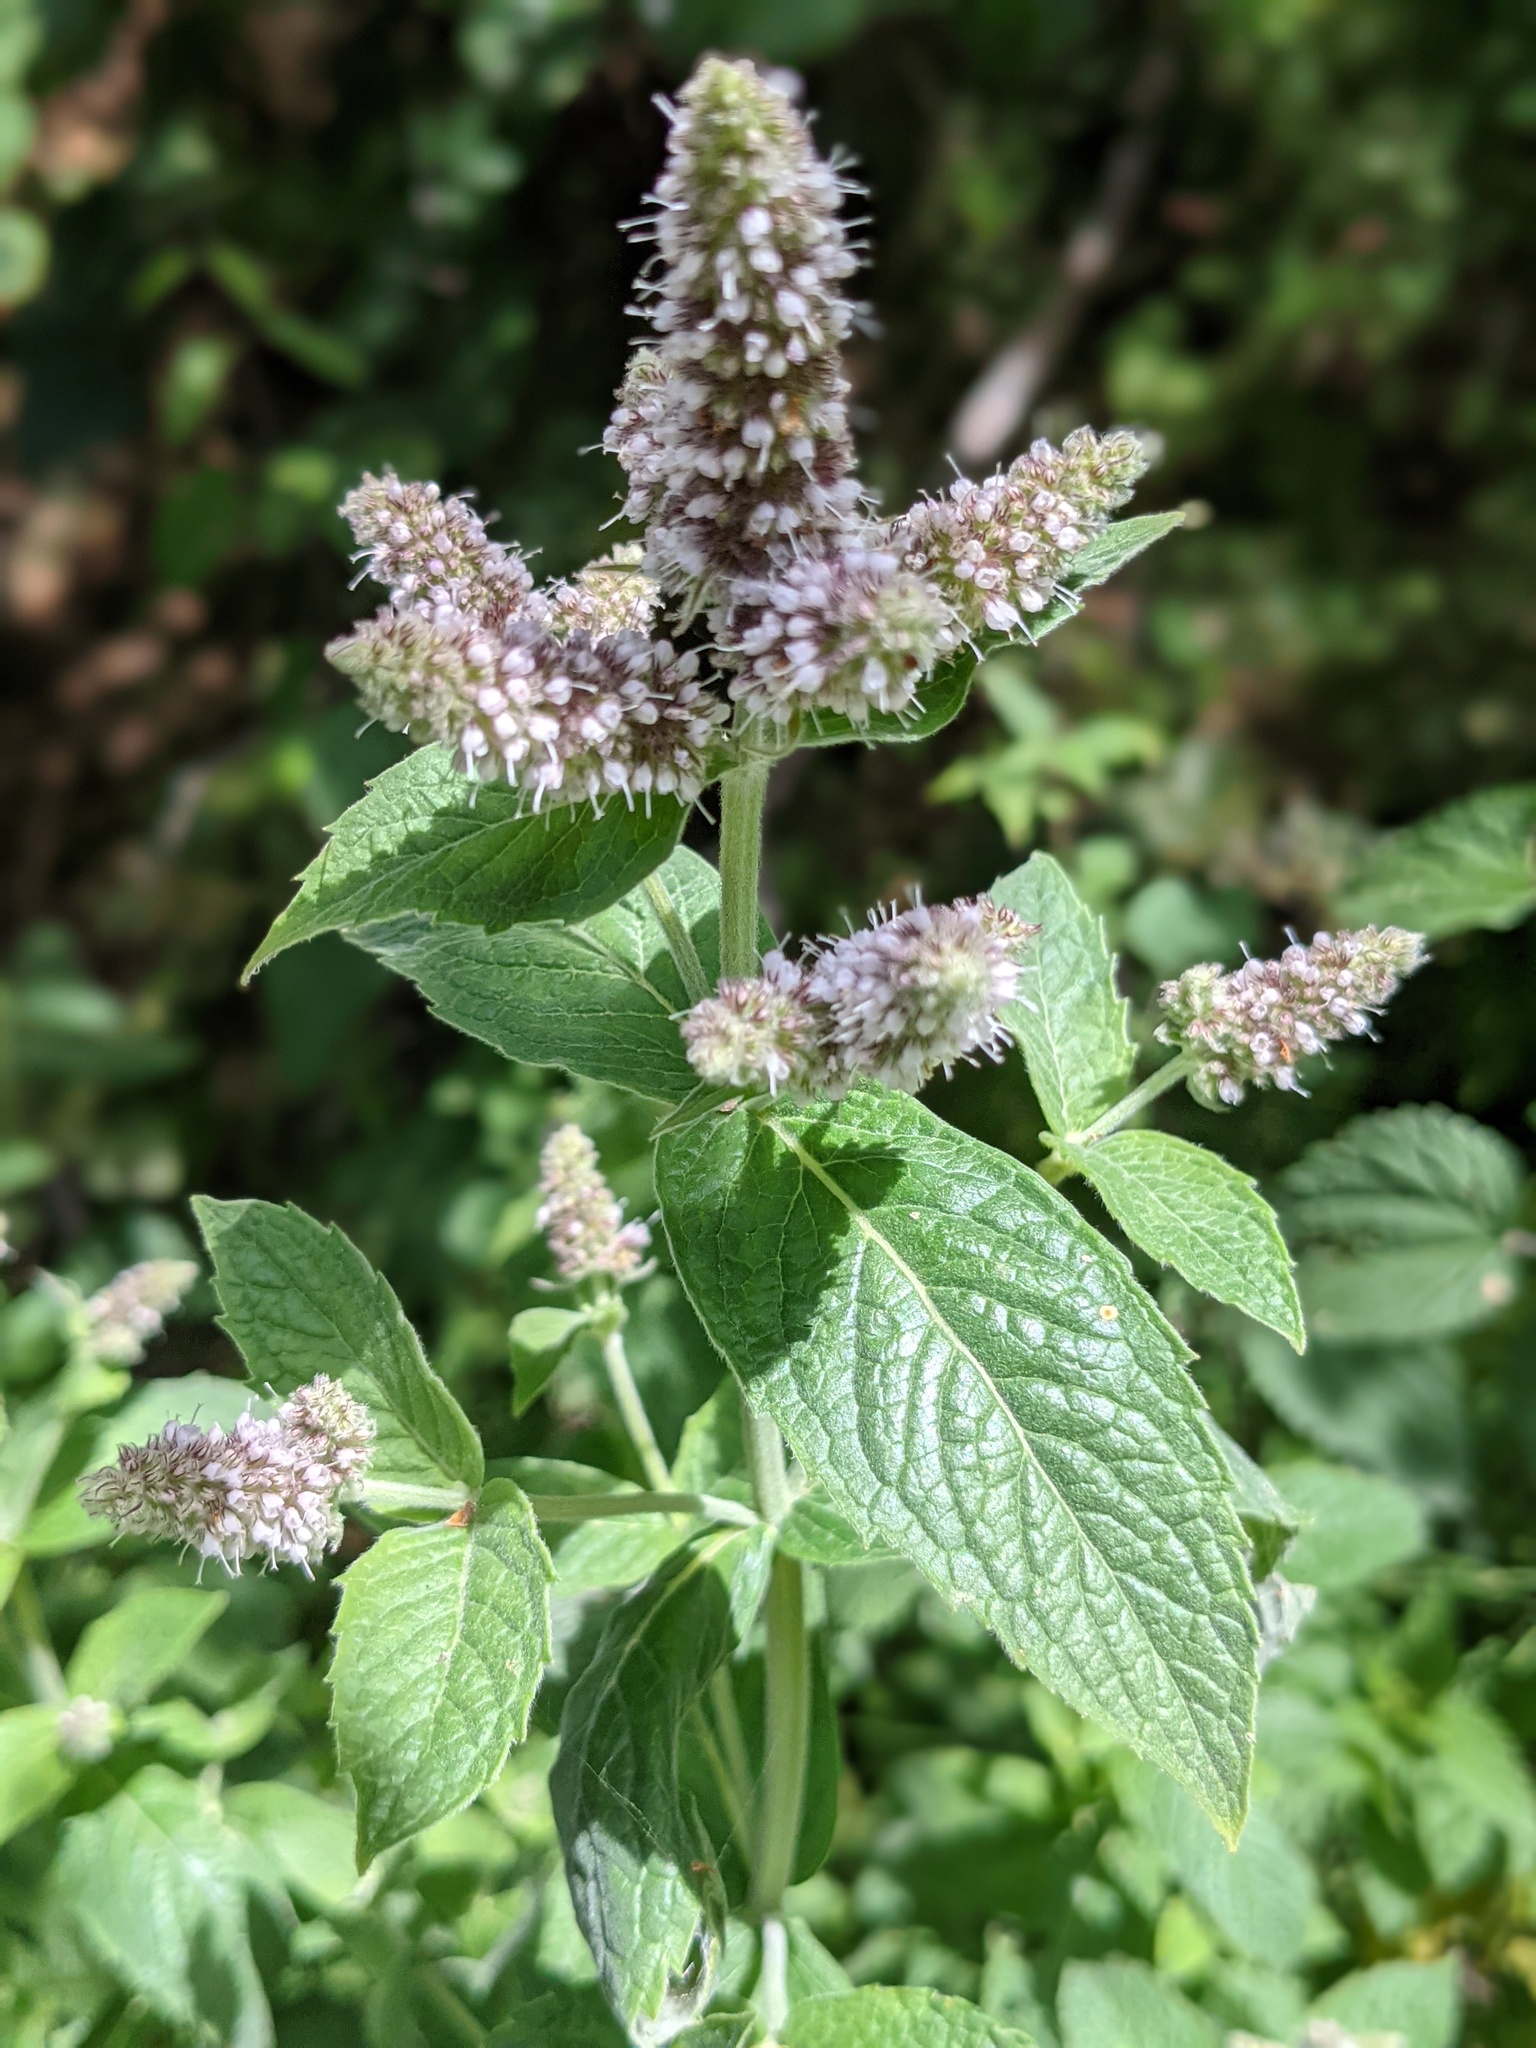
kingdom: Plantae
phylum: Tracheophyta
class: Magnoliopsida
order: Lamiales
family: Lamiaceae
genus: Mentha
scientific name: Mentha longifolia
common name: Horse mint
